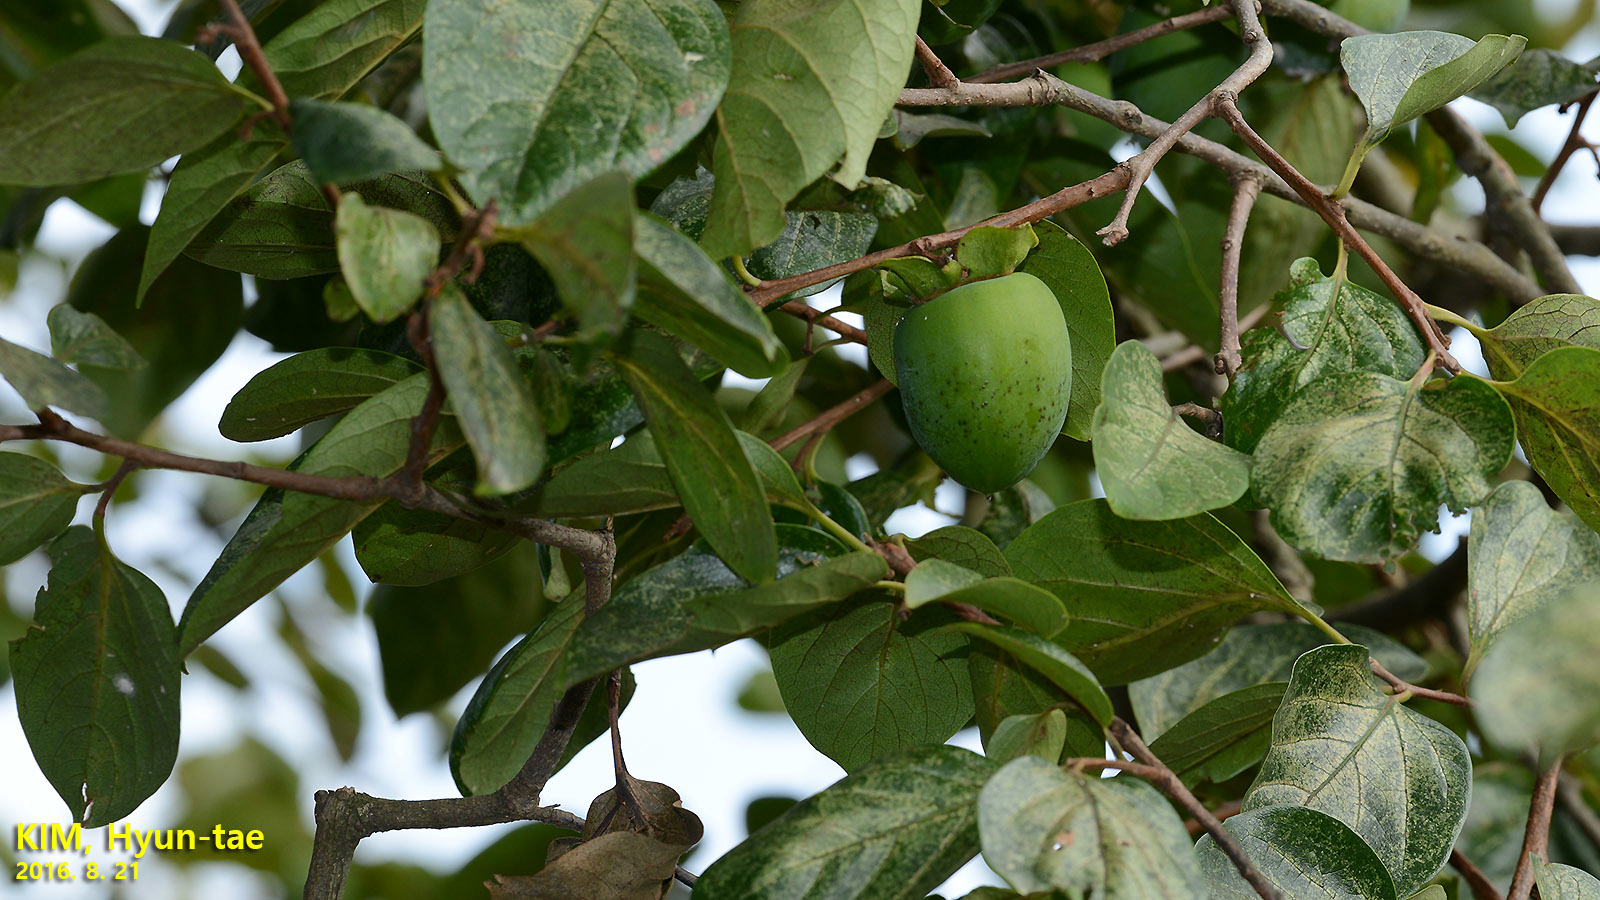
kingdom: Plantae
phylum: Tracheophyta
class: Magnoliopsida
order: Ericales
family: Ebenaceae
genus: Diospyros
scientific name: Diospyros kaki
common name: Persimmon
